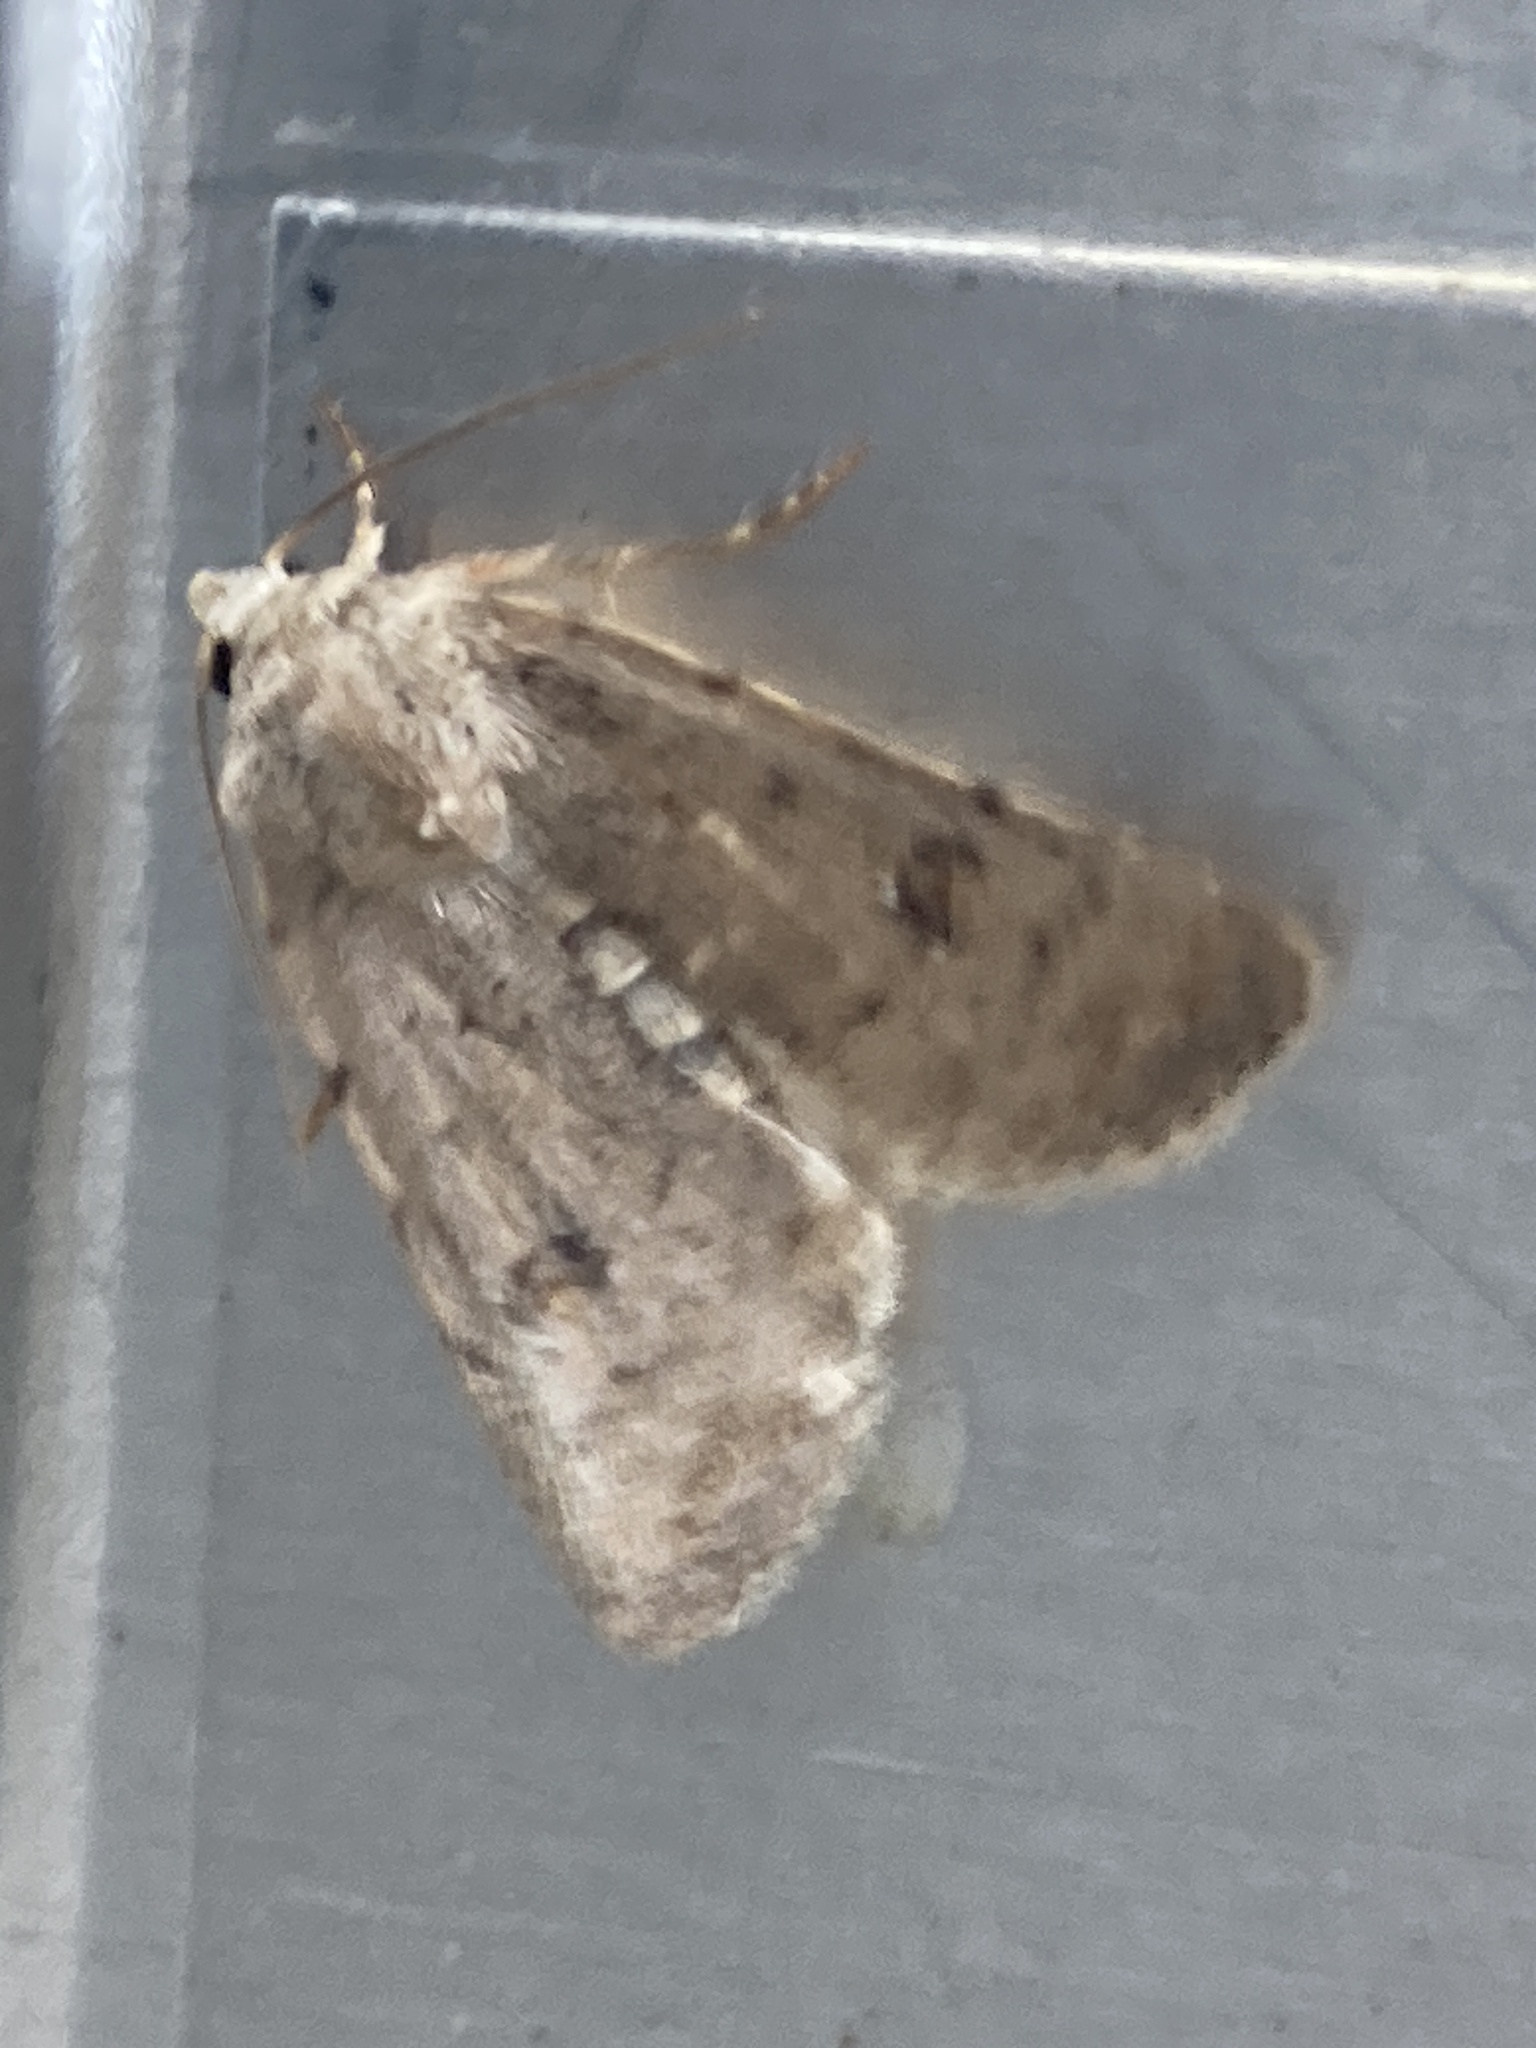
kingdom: Animalia
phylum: Arthropoda
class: Insecta
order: Lepidoptera
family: Noctuidae
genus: Caradrina
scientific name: Caradrina clavipalpis
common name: Pale mottled willow
